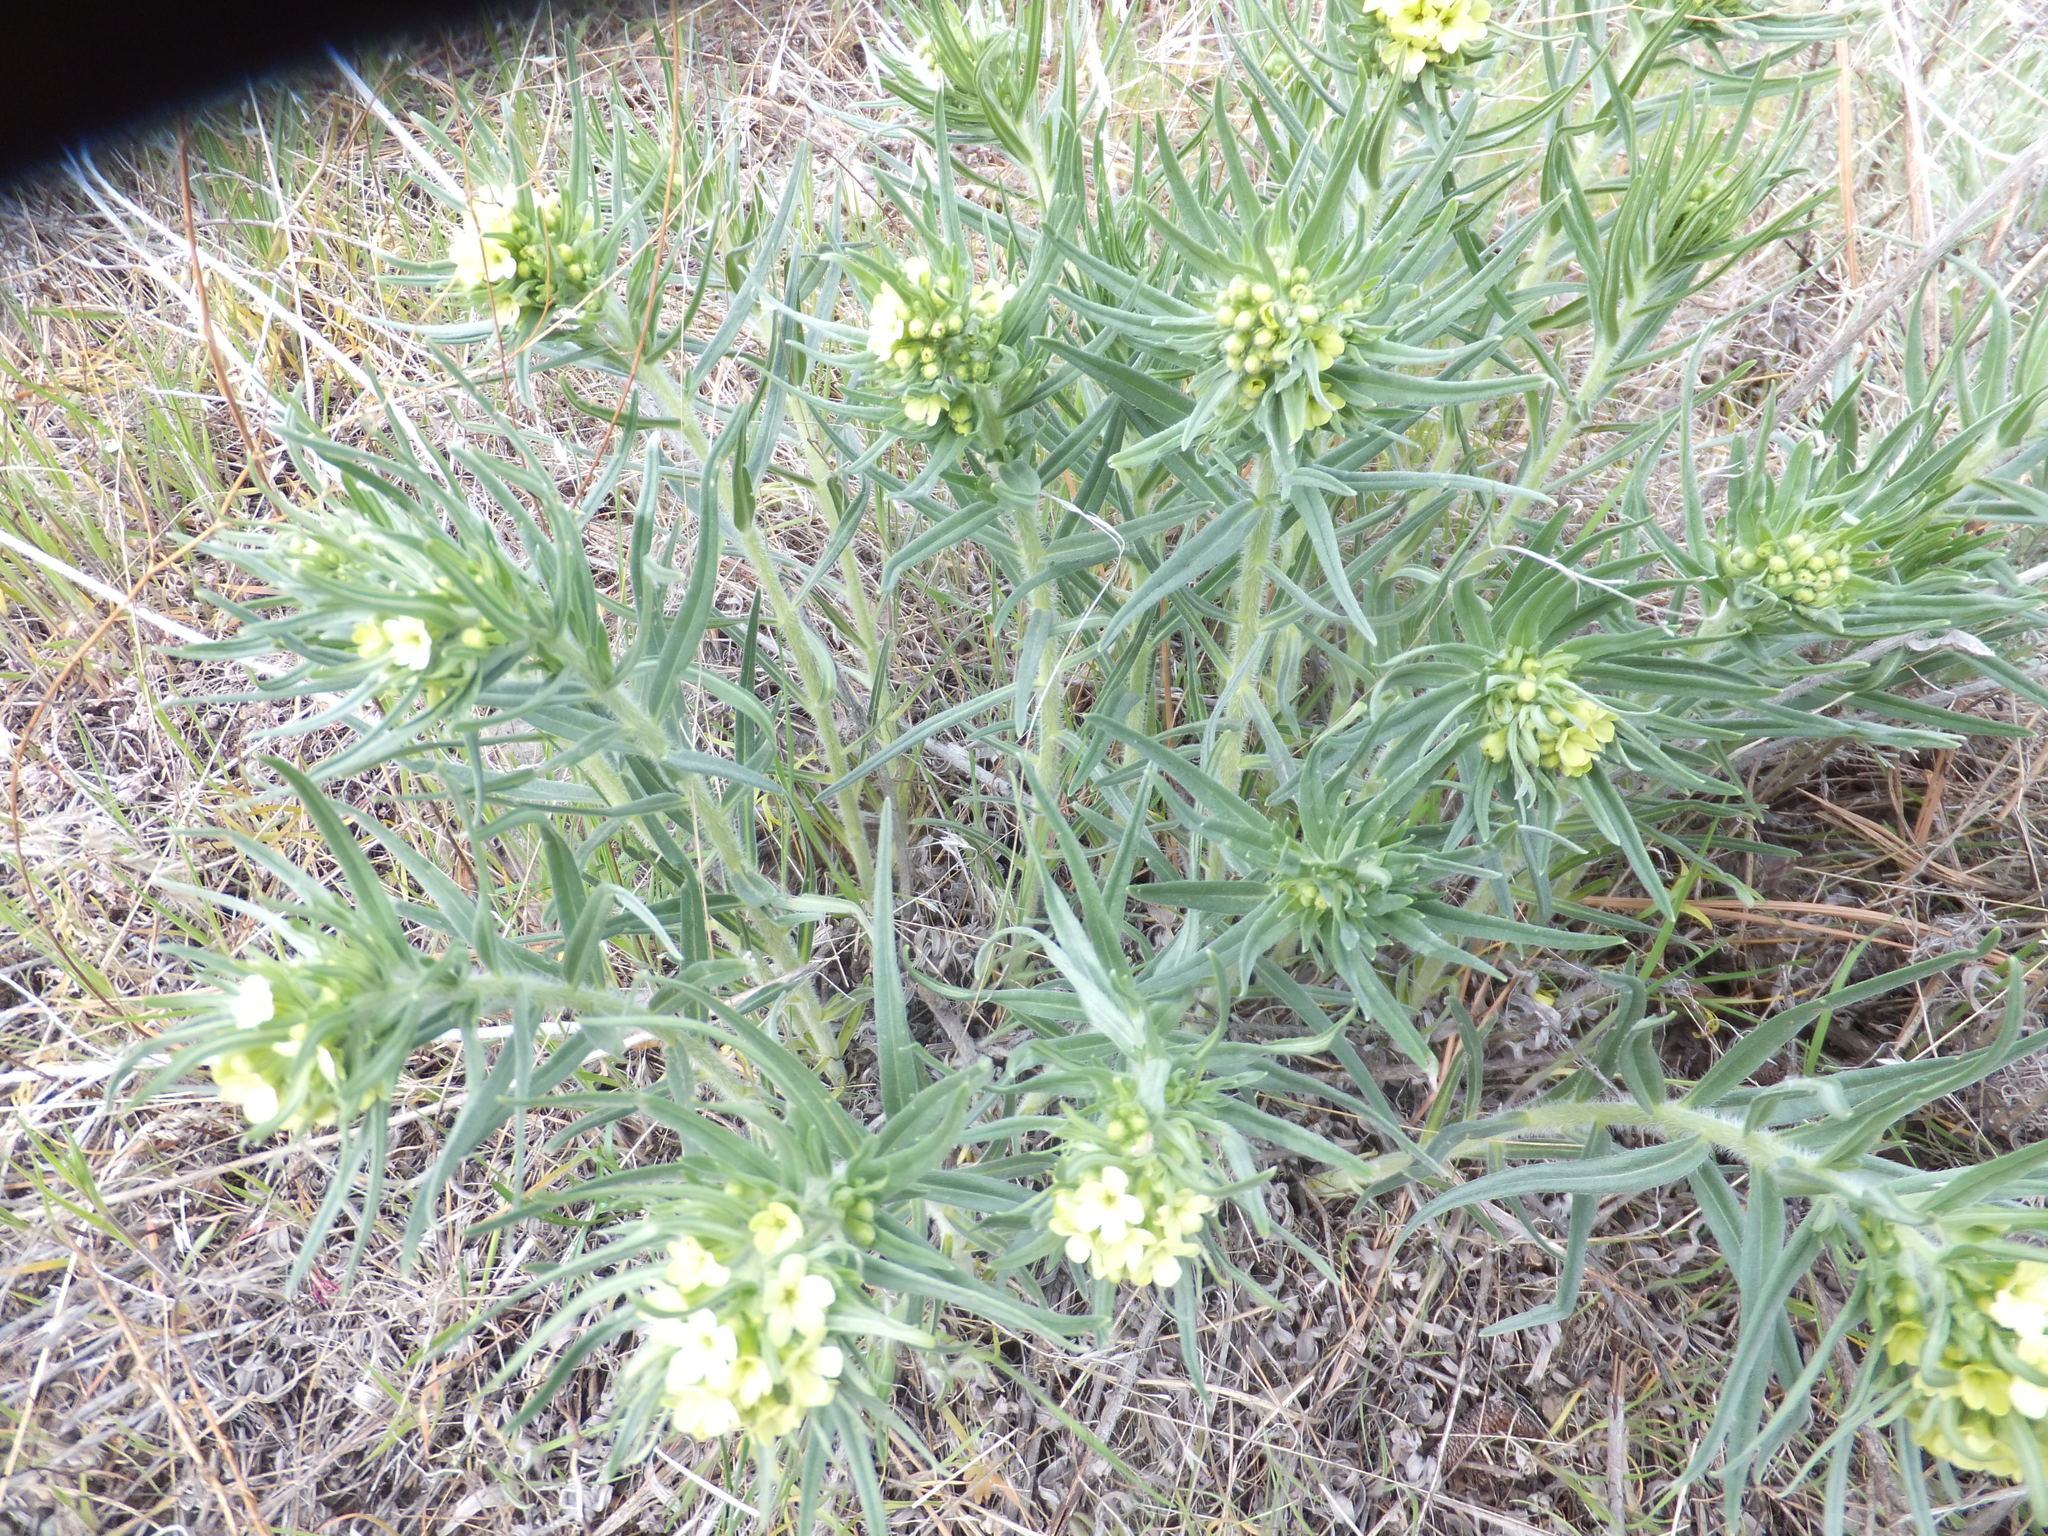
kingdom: Plantae
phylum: Tracheophyta
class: Magnoliopsida
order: Boraginales
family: Boraginaceae
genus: Lithospermum
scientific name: Lithospermum ruderale
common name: Western gromwell
